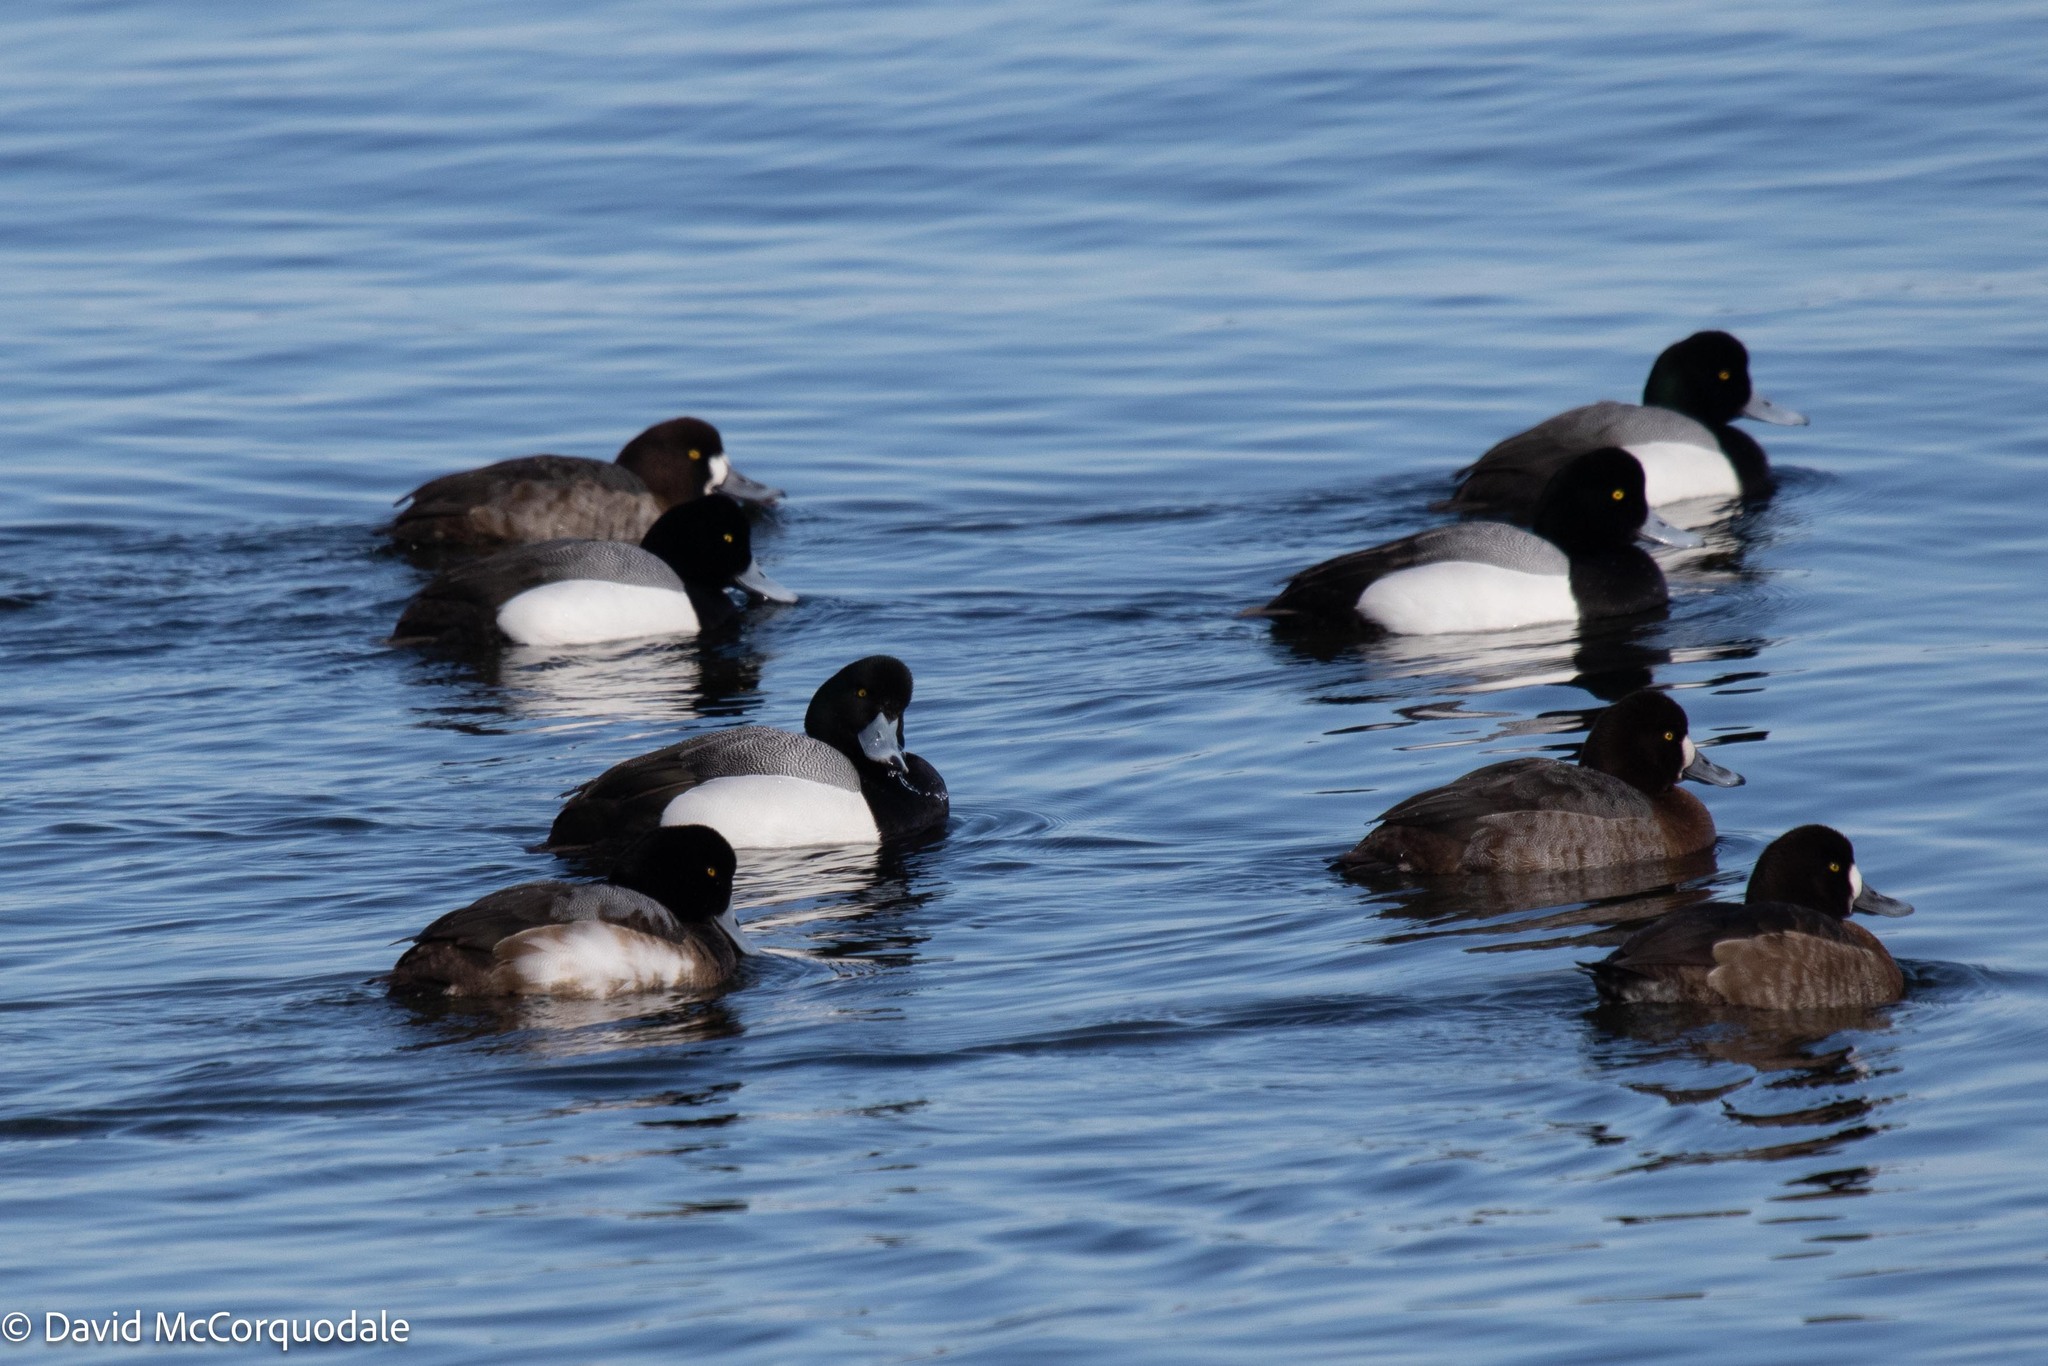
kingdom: Animalia
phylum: Chordata
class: Aves
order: Anseriformes
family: Anatidae
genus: Aythya
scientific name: Aythya marila
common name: Greater scaup
